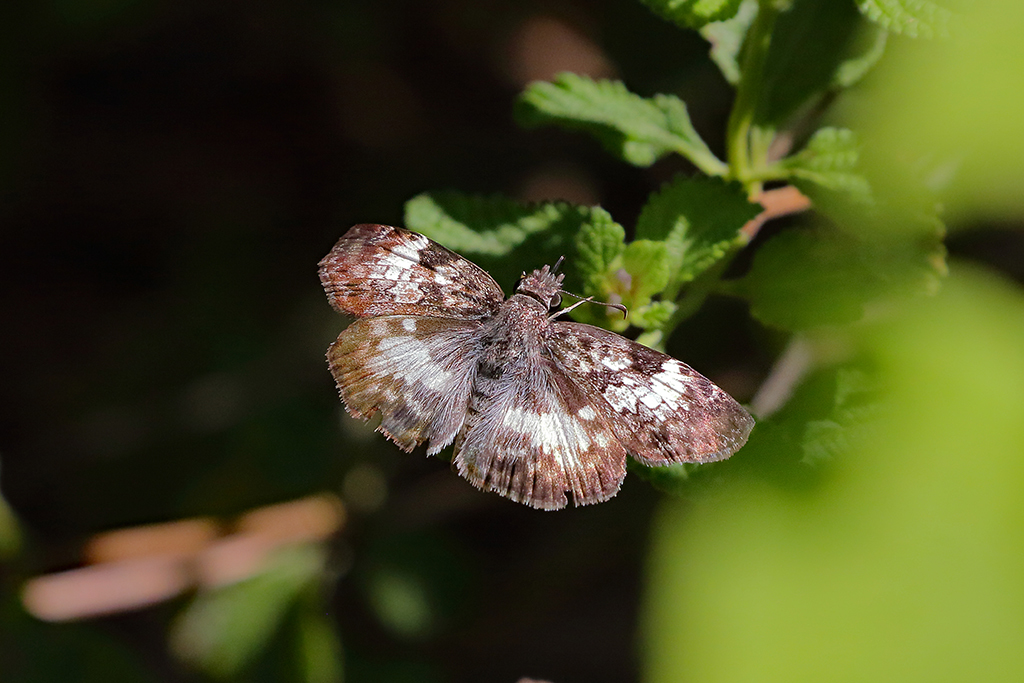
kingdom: Animalia
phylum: Arthropoda
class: Insecta
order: Lepidoptera
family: Hesperiidae
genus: Chiothion
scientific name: Chiothion georgina
